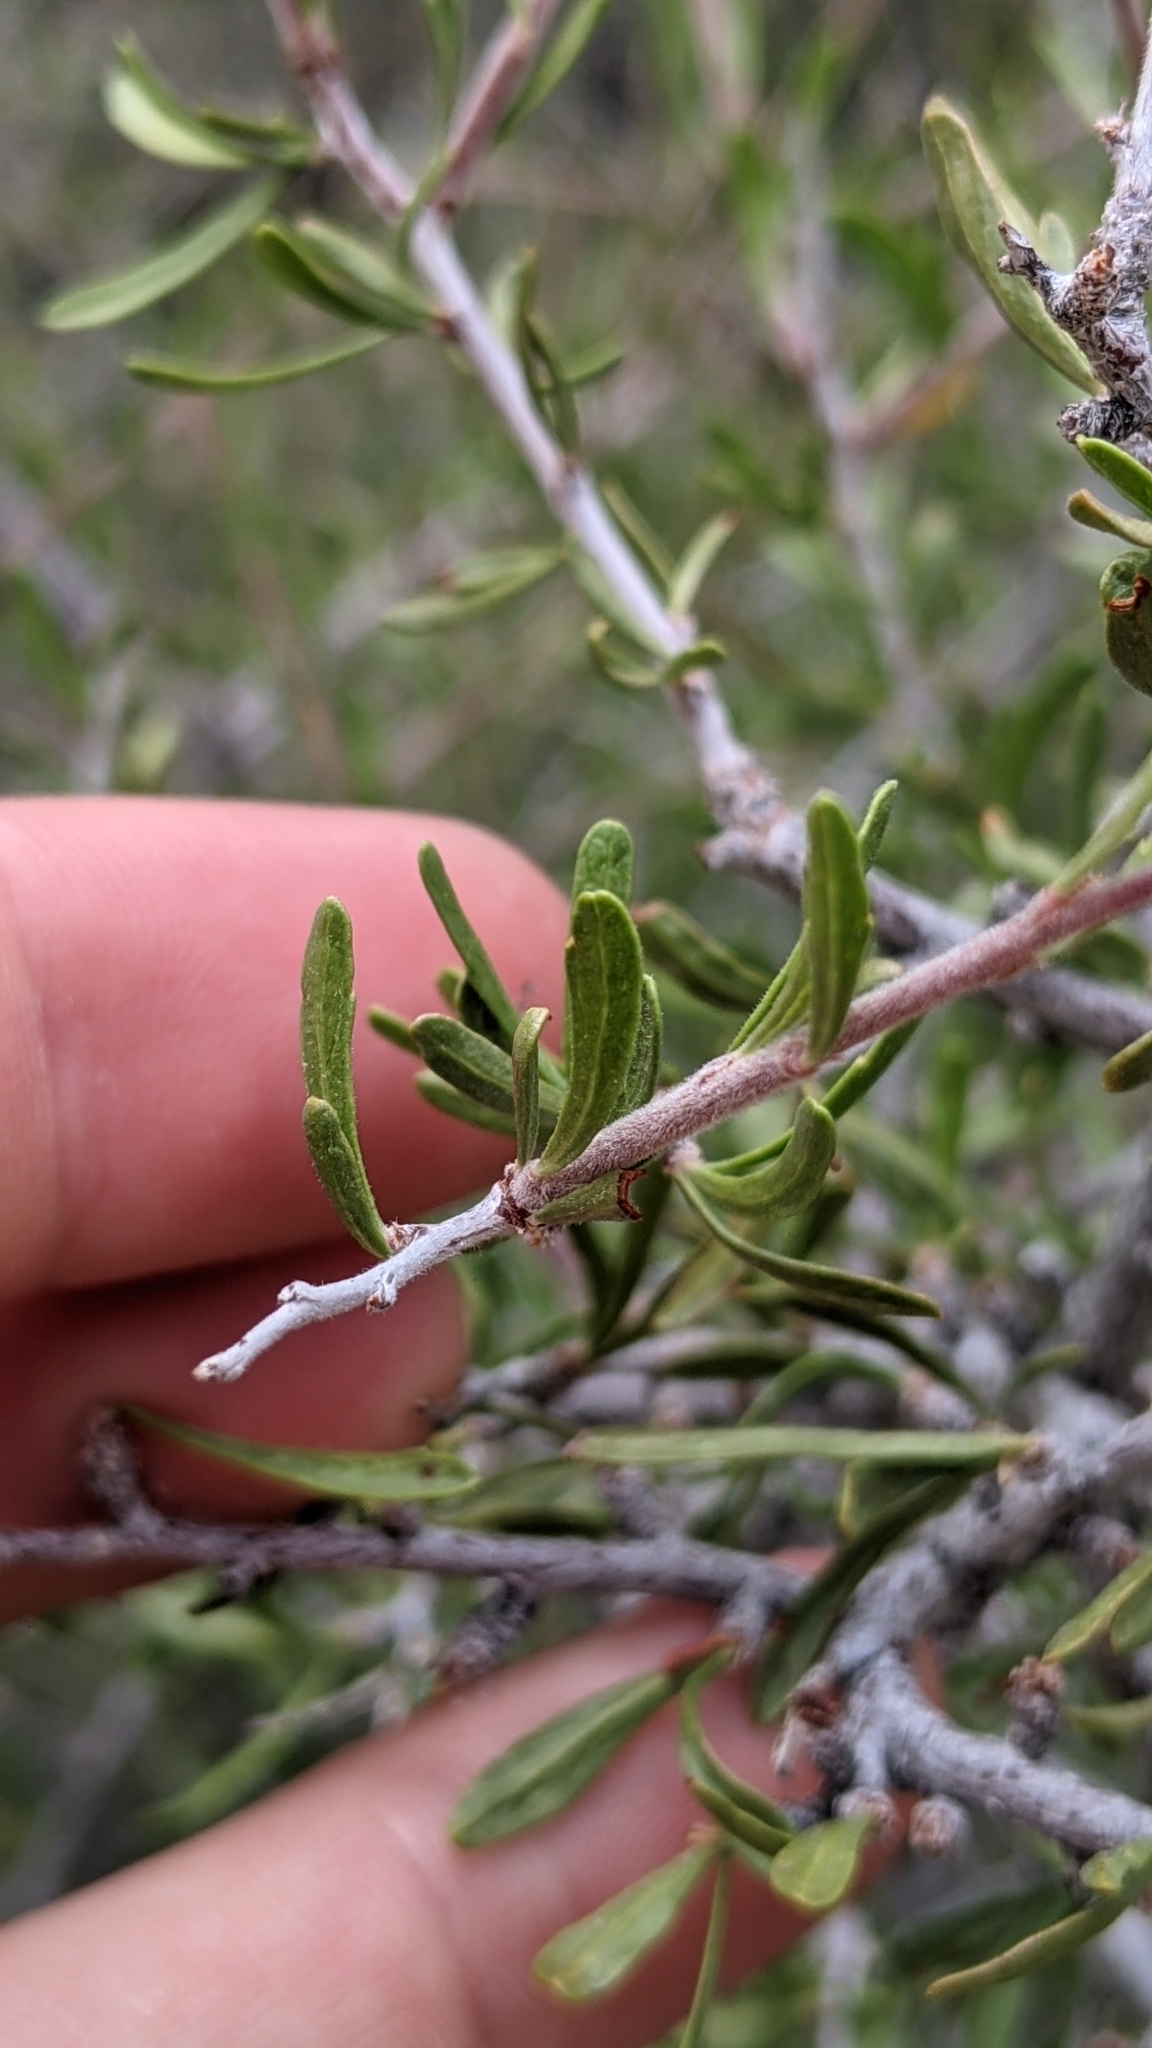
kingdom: Plantae
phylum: Tracheophyta
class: Magnoliopsida
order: Rosales
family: Rosaceae
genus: Prunus
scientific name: Prunus fasciculata
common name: Desert almond
